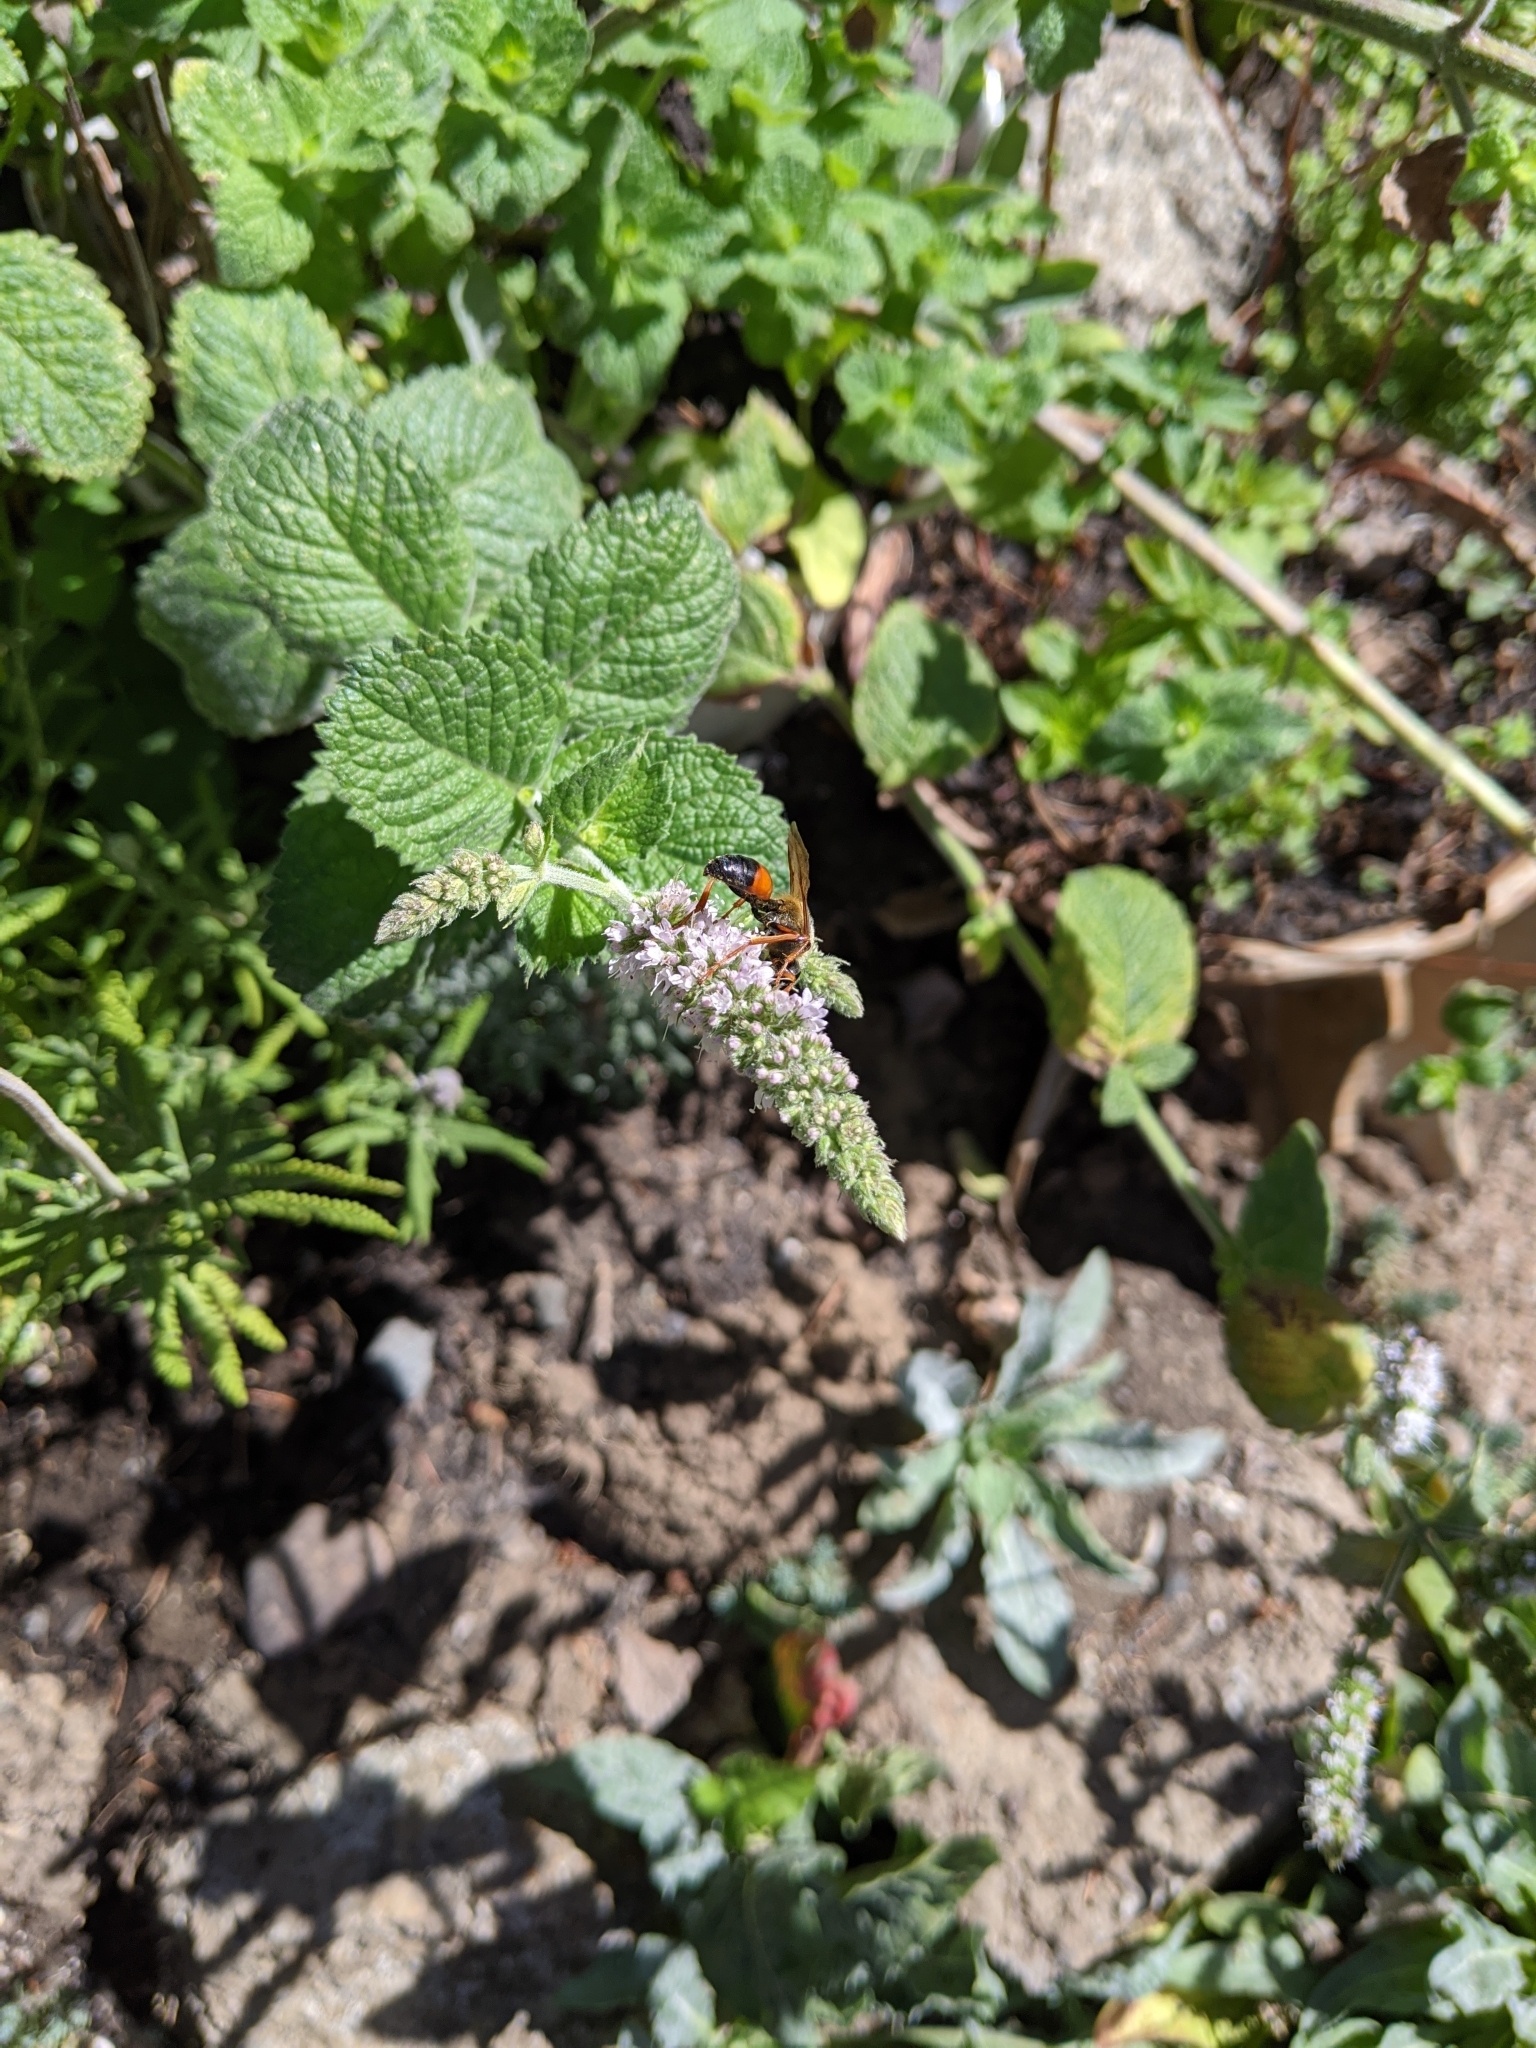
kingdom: Animalia
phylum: Arthropoda
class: Insecta
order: Hymenoptera
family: Sphecidae
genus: Sphex
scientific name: Sphex ichneumoneus
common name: Great golden digger wasp
